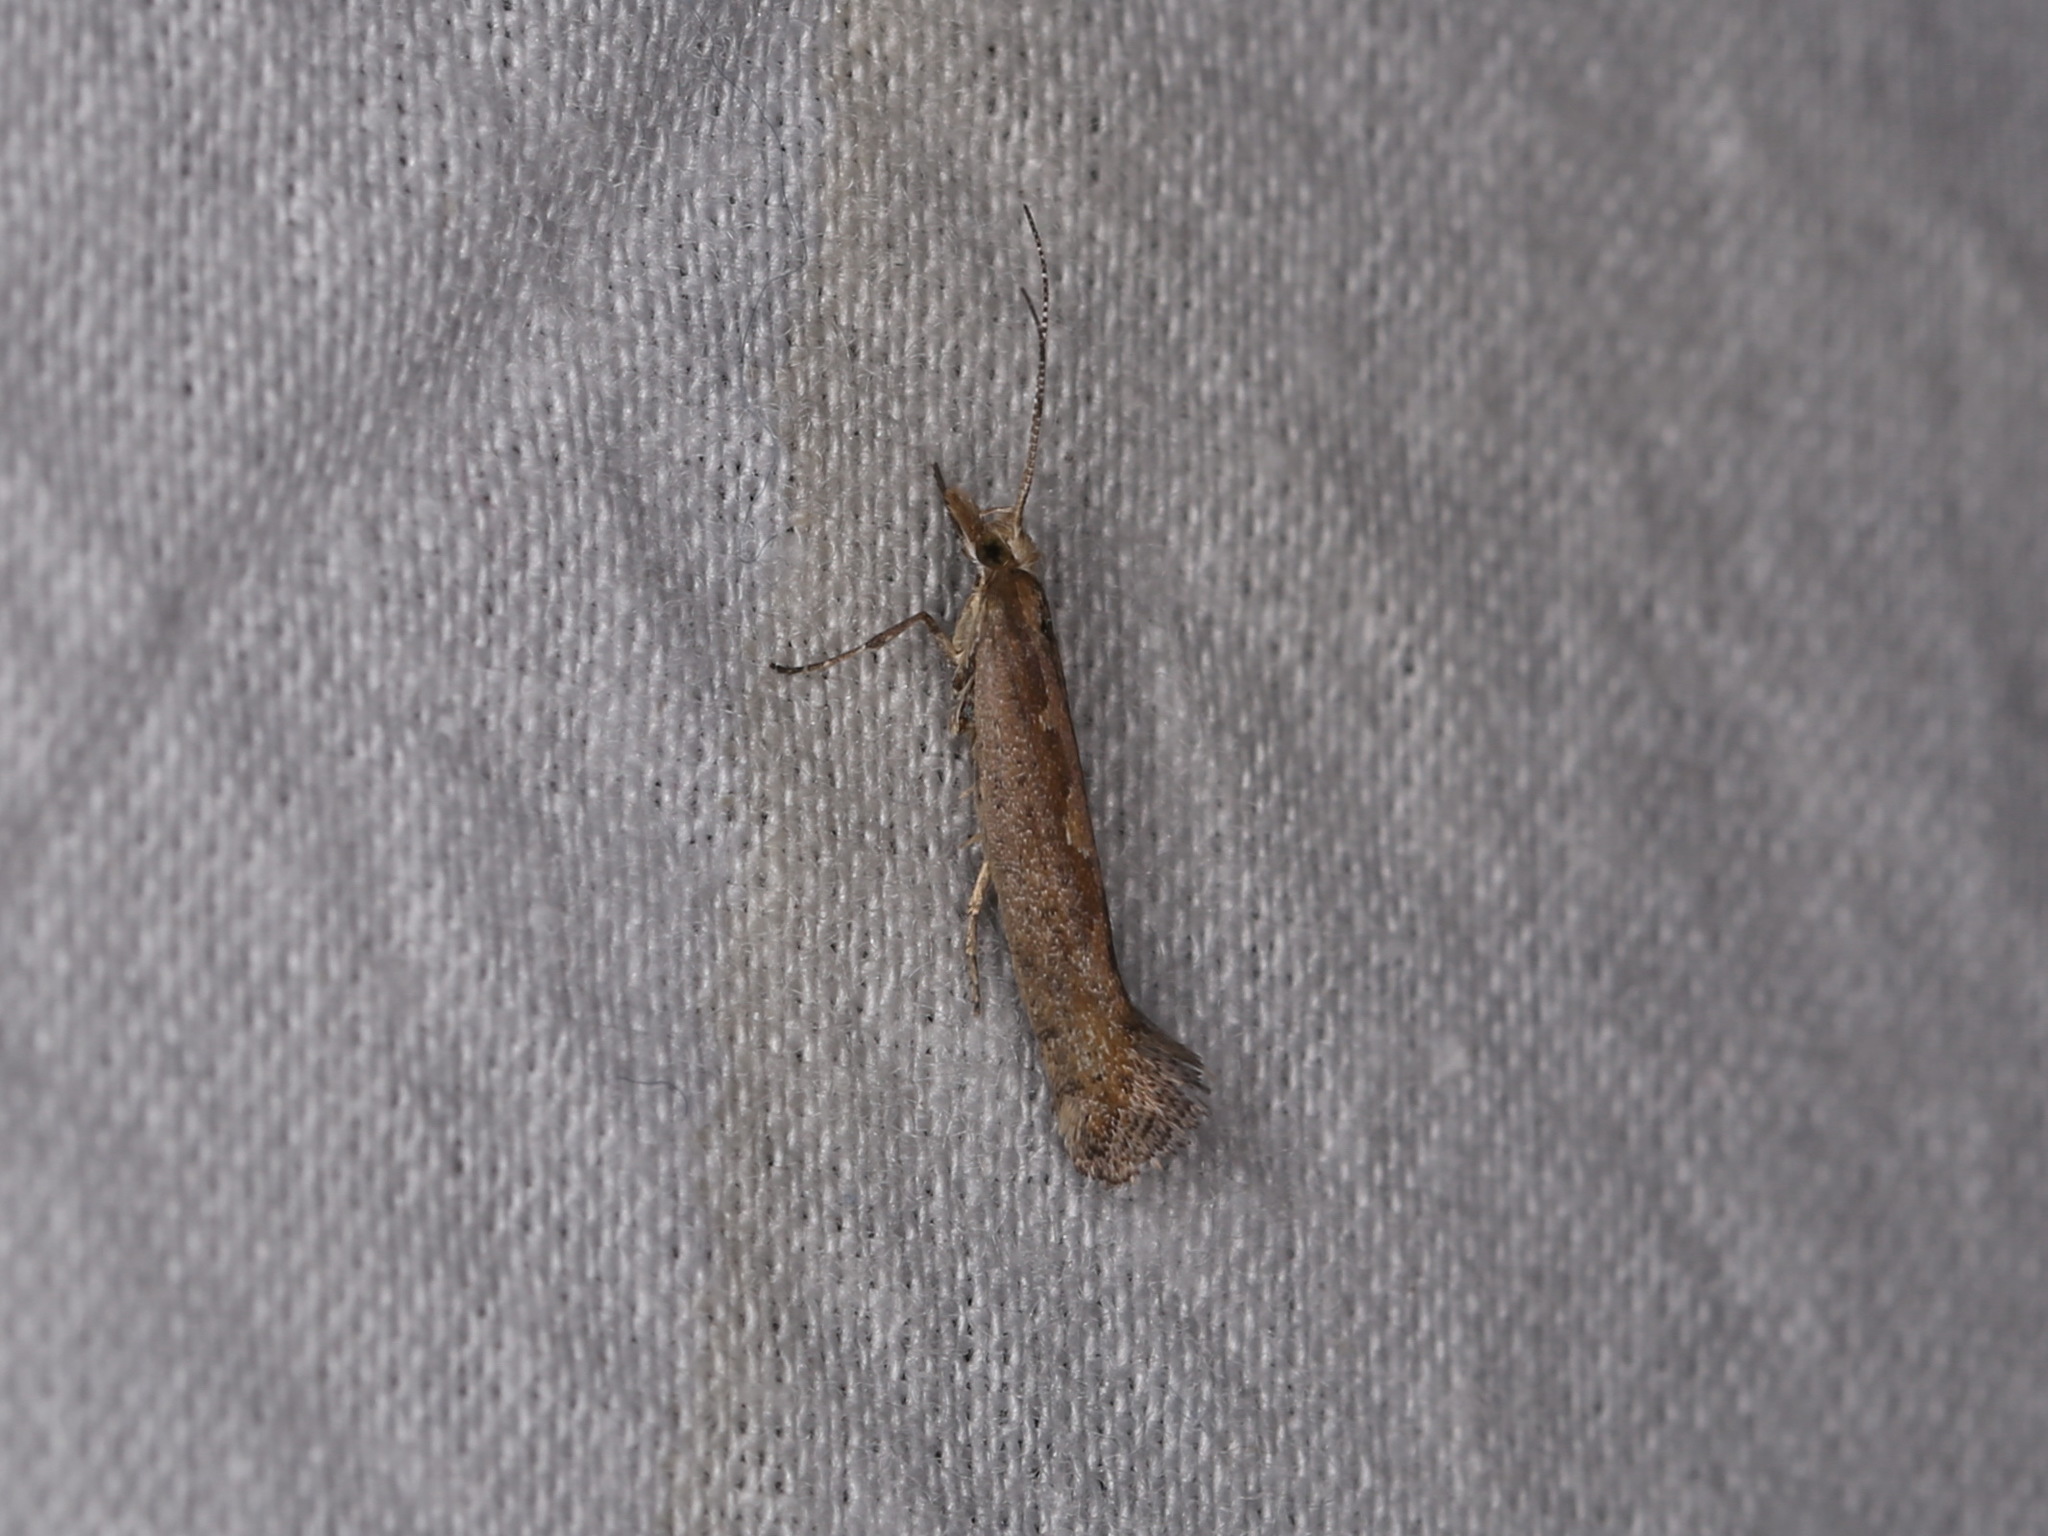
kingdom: Animalia
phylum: Arthropoda
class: Insecta
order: Lepidoptera
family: Plutellidae
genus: Plutella
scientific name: Plutella xylostella
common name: Diamond-back moth
